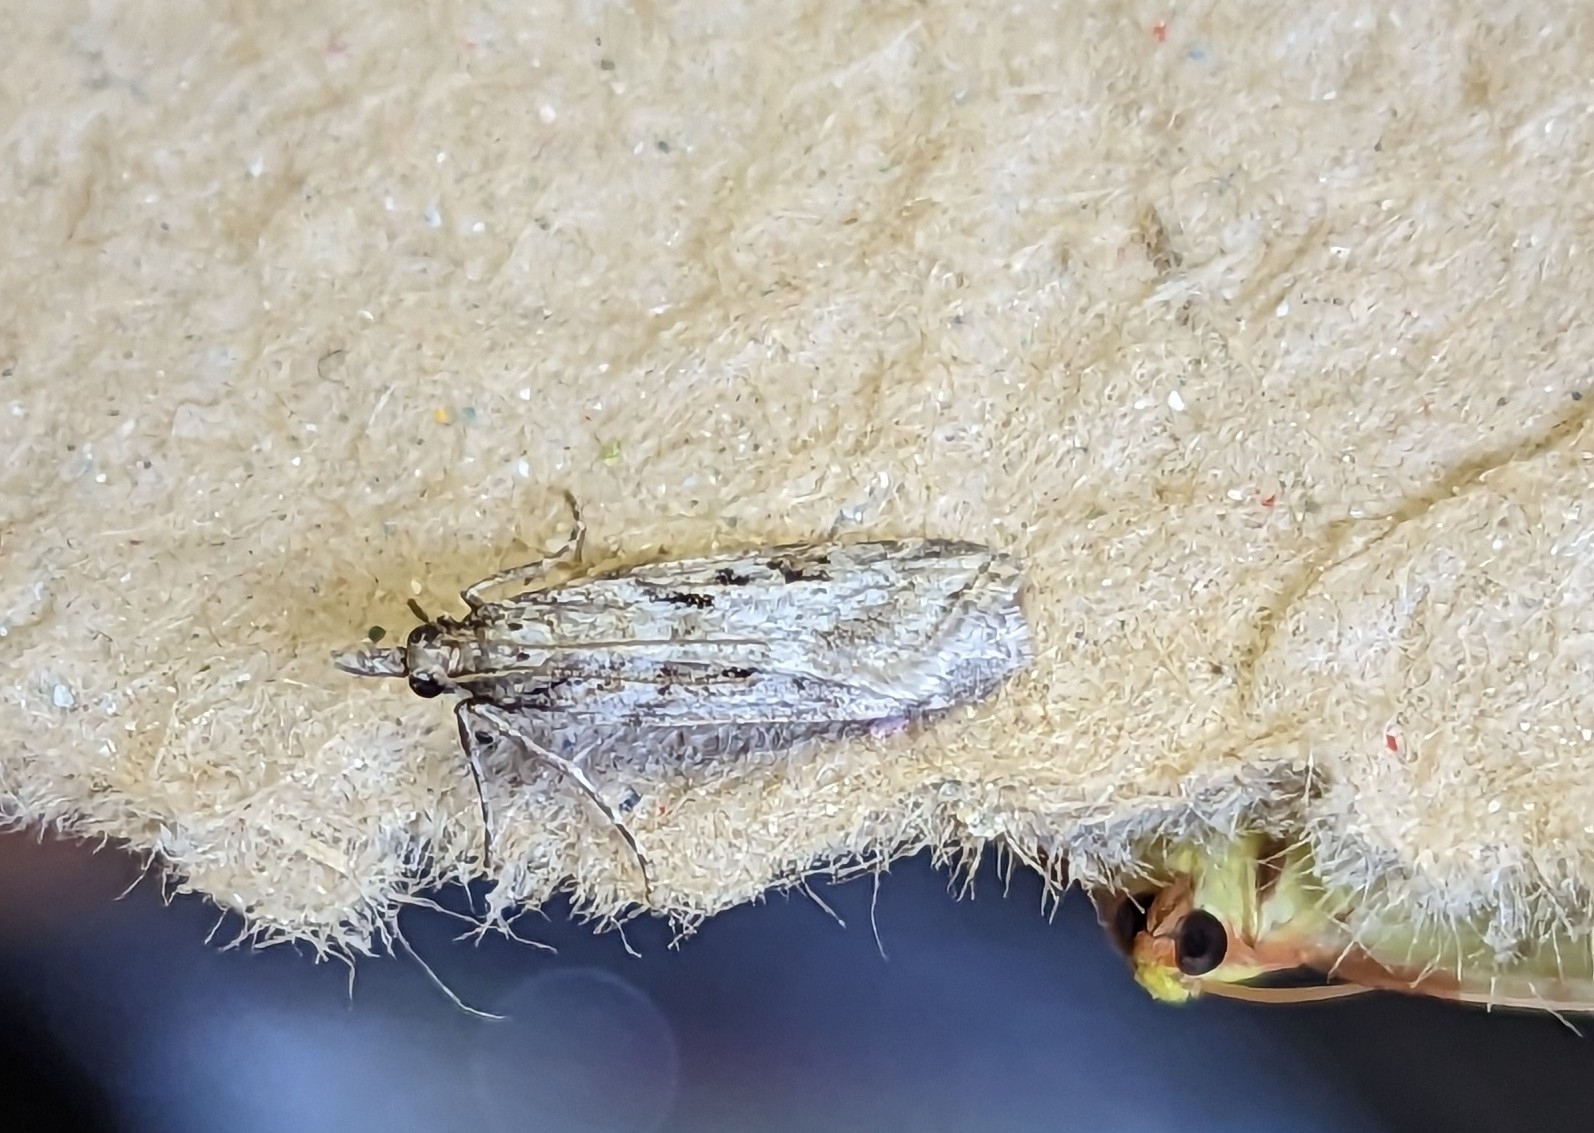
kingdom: Animalia
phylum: Arthropoda
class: Insecta
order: Lepidoptera
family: Crambidae
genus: Eudonia
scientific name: Eudonia angustea
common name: Narrow-winged grey
